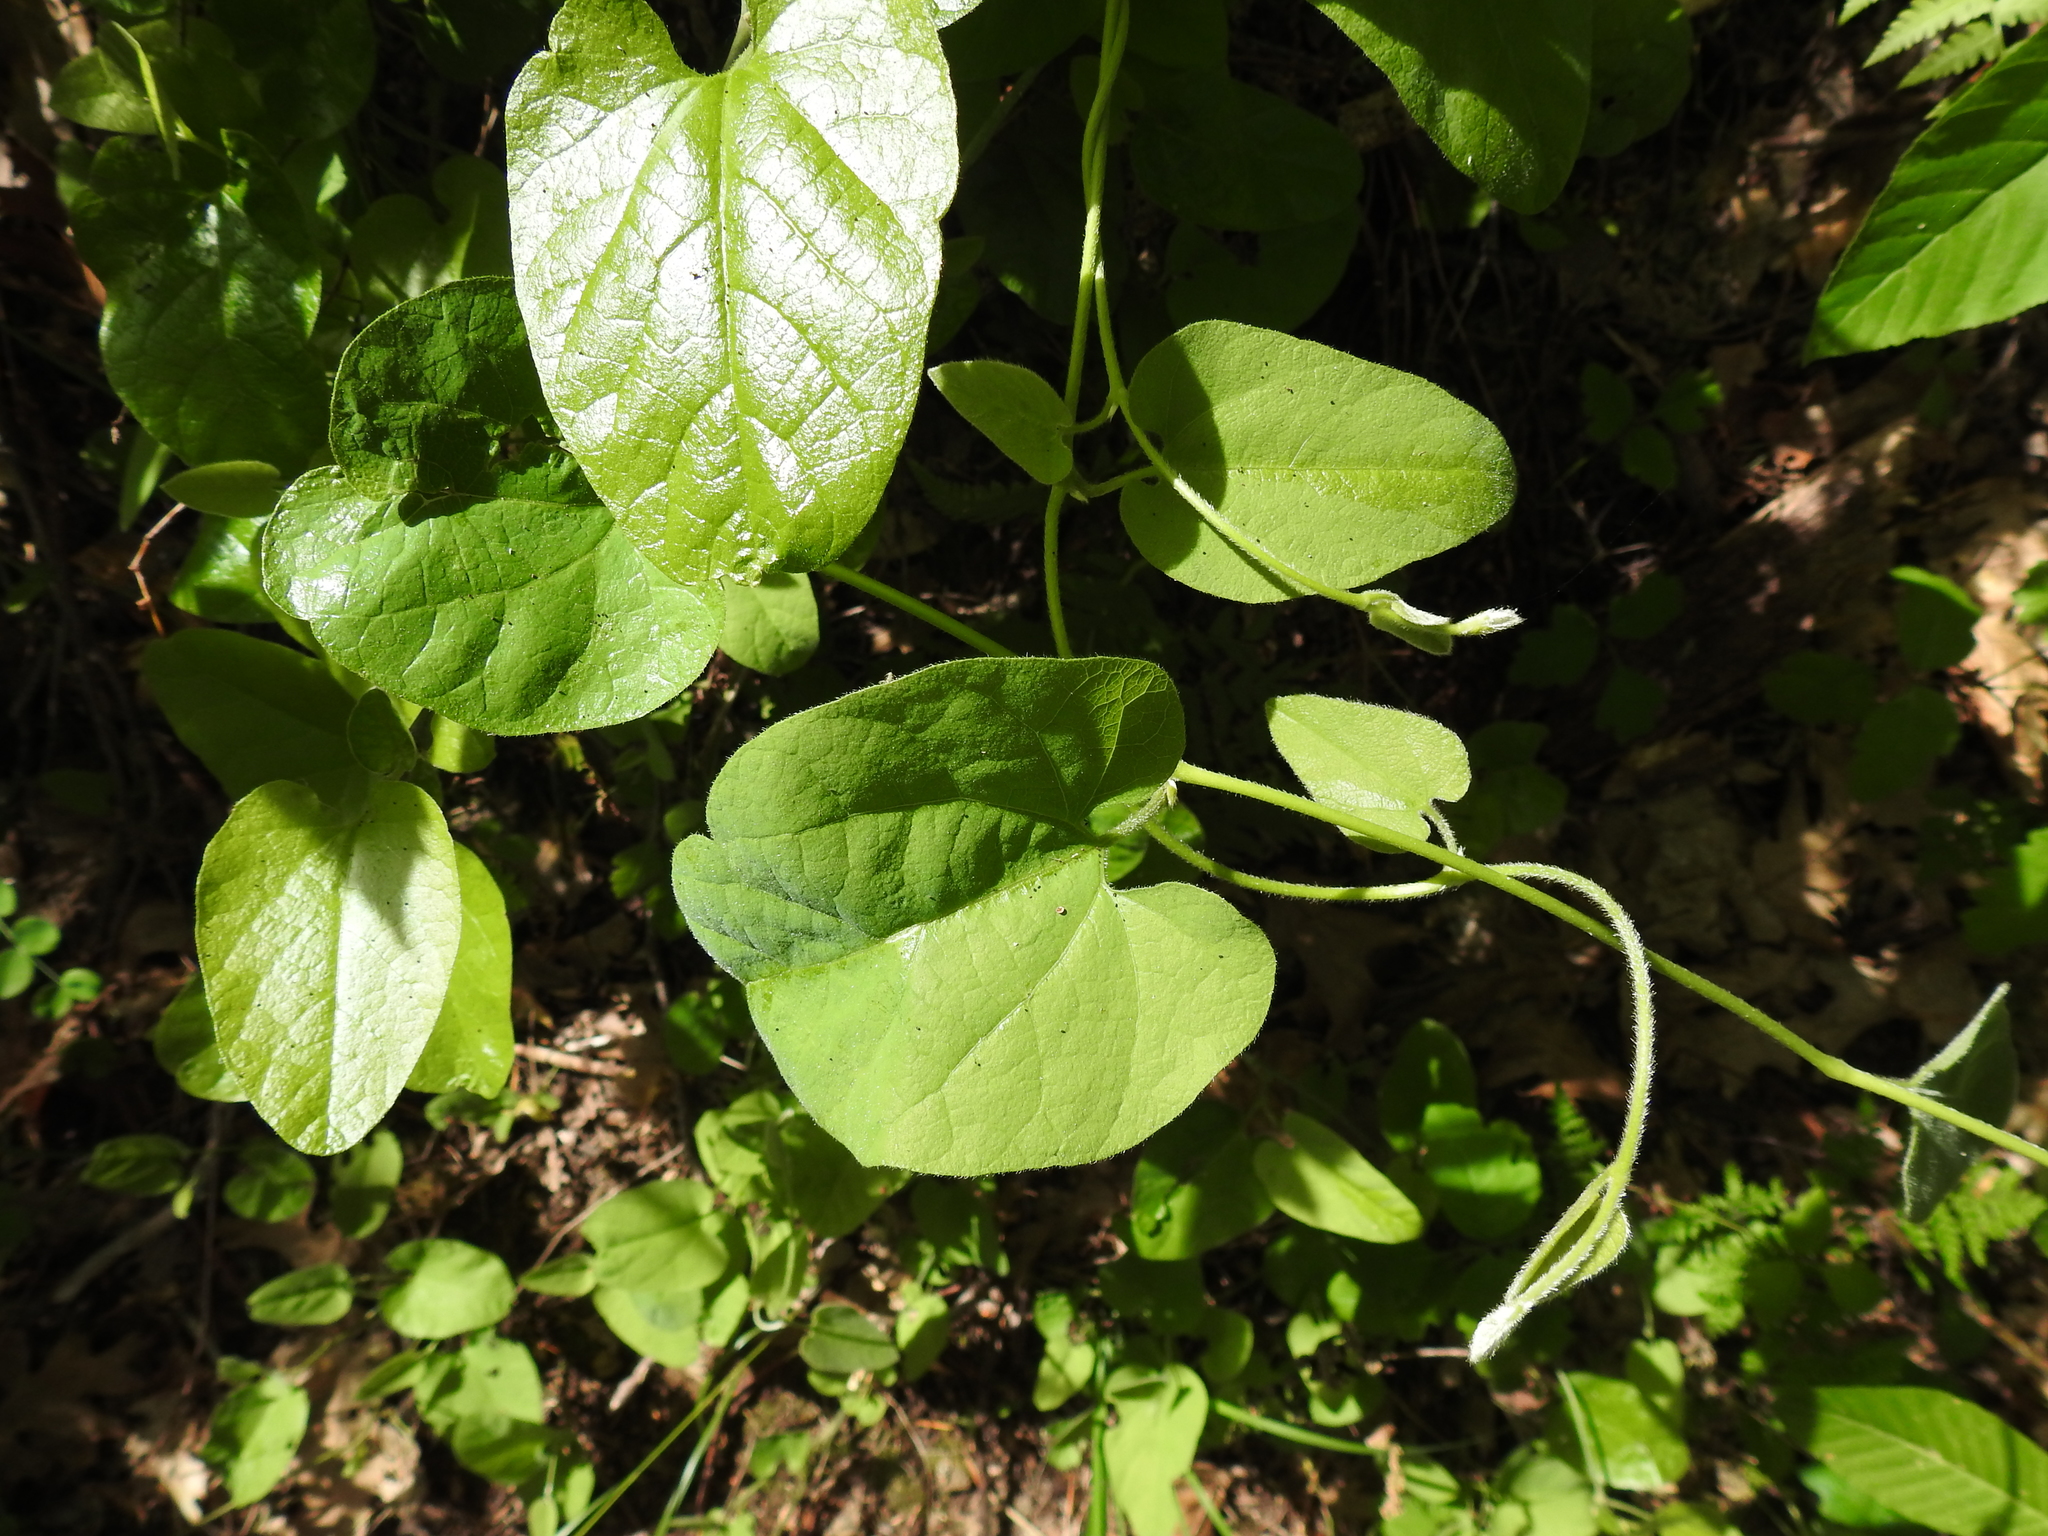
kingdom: Plantae
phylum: Tracheophyta
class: Magnoliopsida
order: Piperales
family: Aristolochiaceae
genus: Isotrema
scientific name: Isotrema californicum
